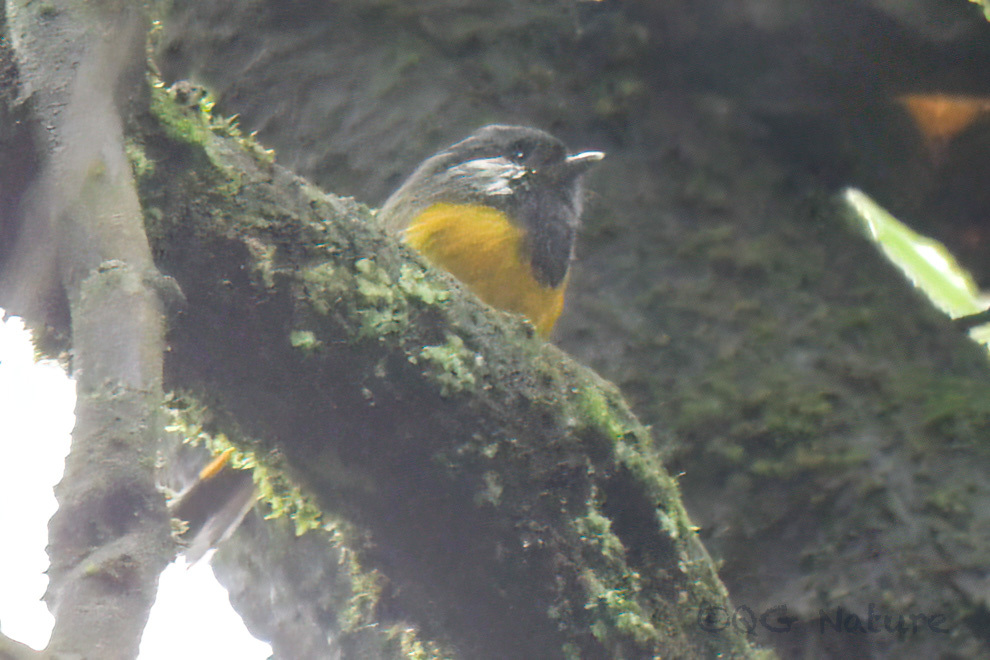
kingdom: Animalia
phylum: Chordata
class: Aves
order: Passeriformes
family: Sylviidae
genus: Lioparus
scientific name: Lioparus chrysotis
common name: Golden-breasted fulvetta
